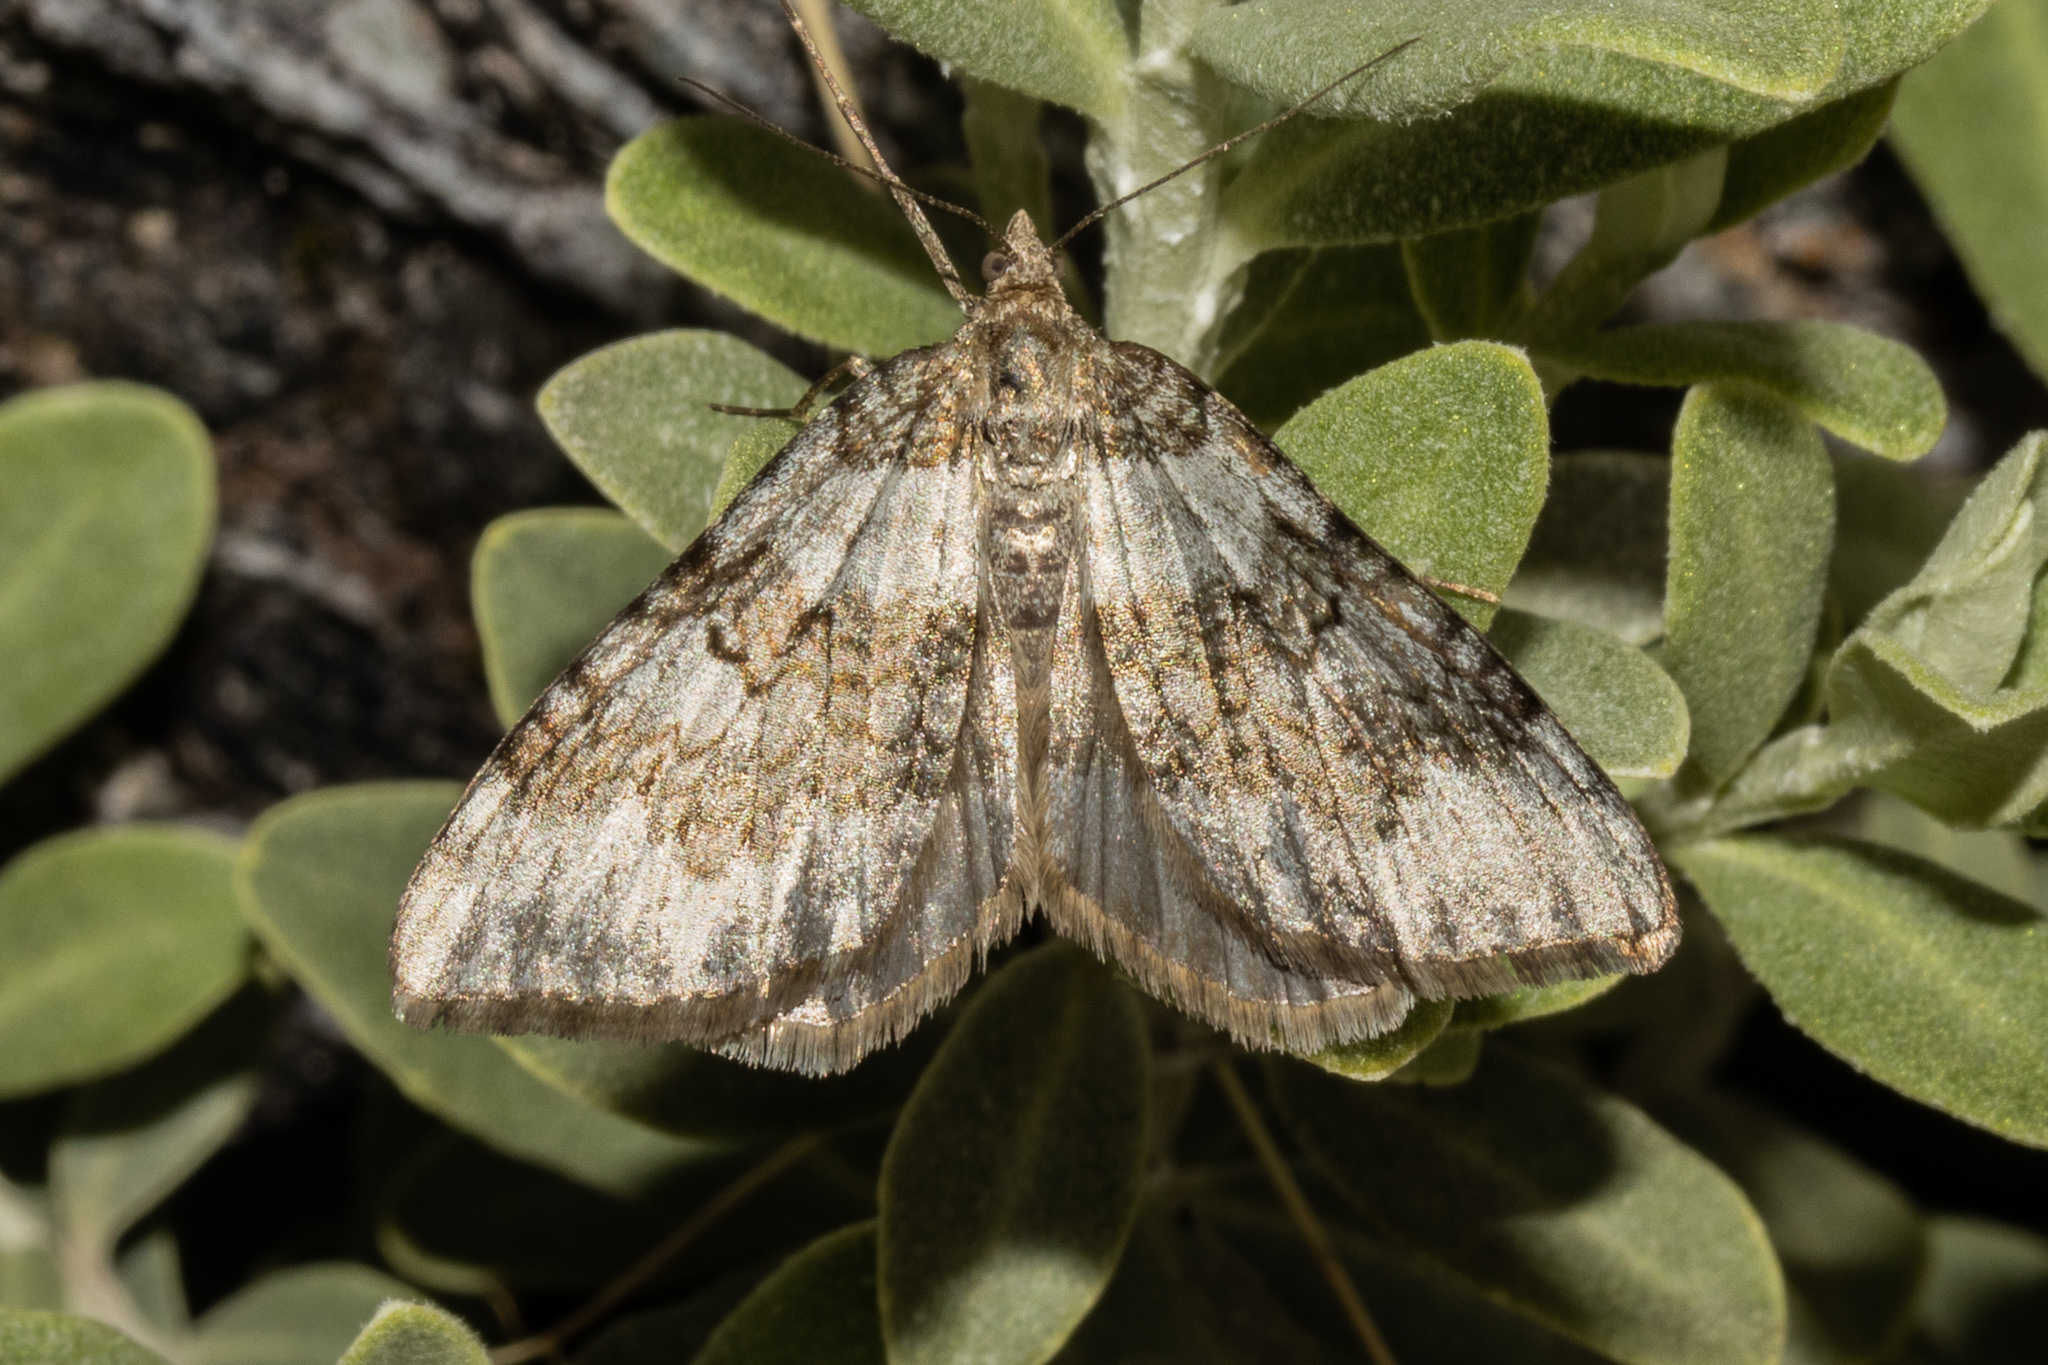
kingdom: Animalia
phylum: Arthropoda
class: Insecta
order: Lepidoptera
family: Geometridae
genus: Xanthorhoe
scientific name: Xanthorhoe frigida
